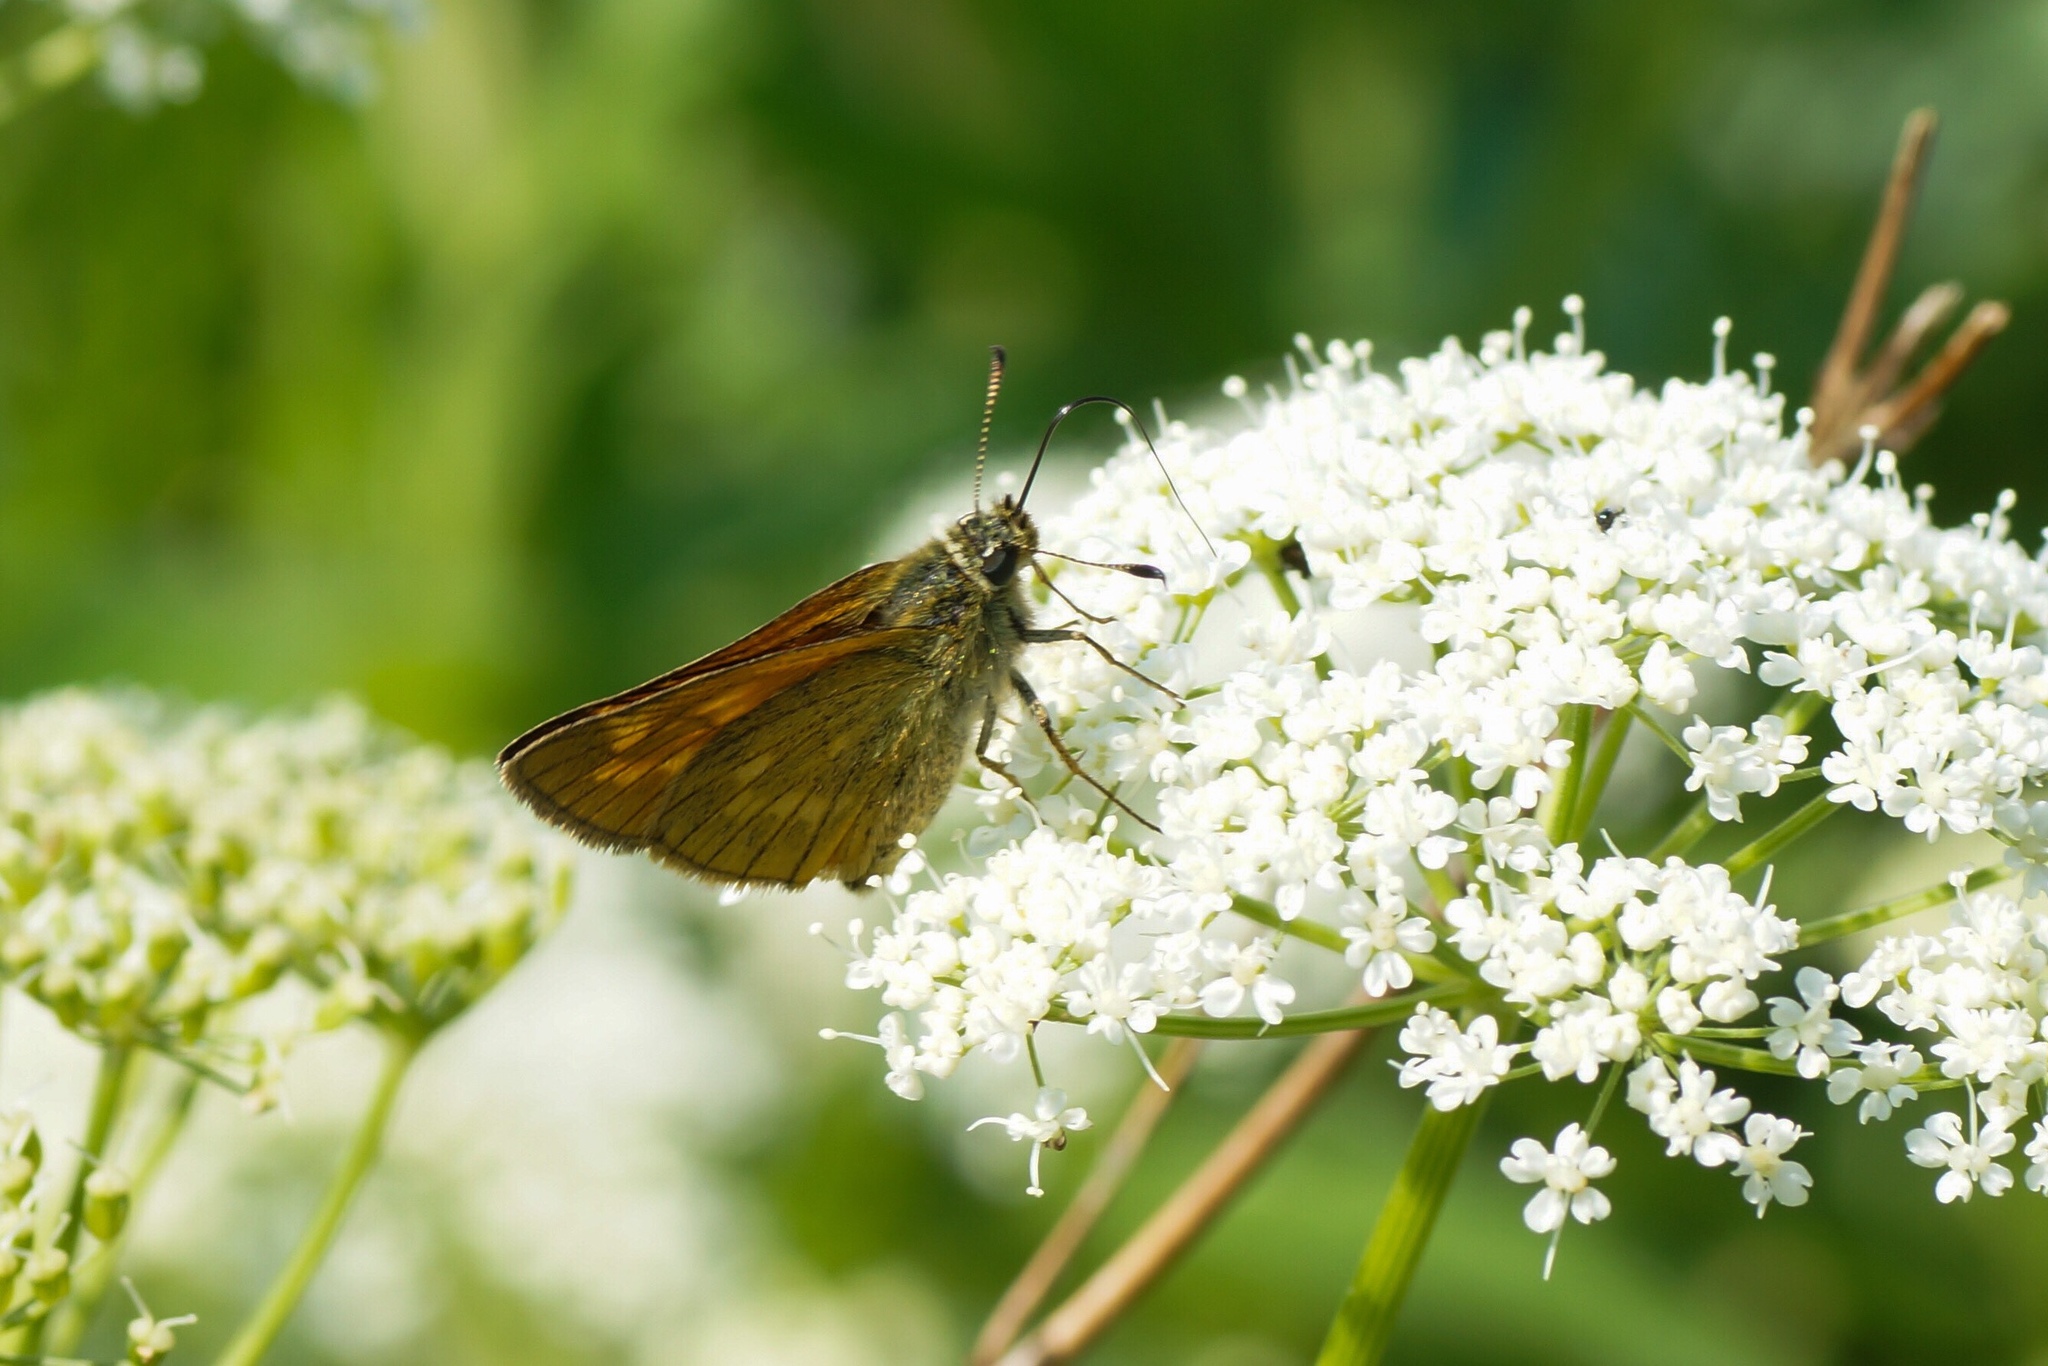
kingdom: Animalia
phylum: Arthropoda
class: Insecta
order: Lepidoptera
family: Hesperiidae
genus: Ochlodes
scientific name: Ochlodes venata
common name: Large skipper
